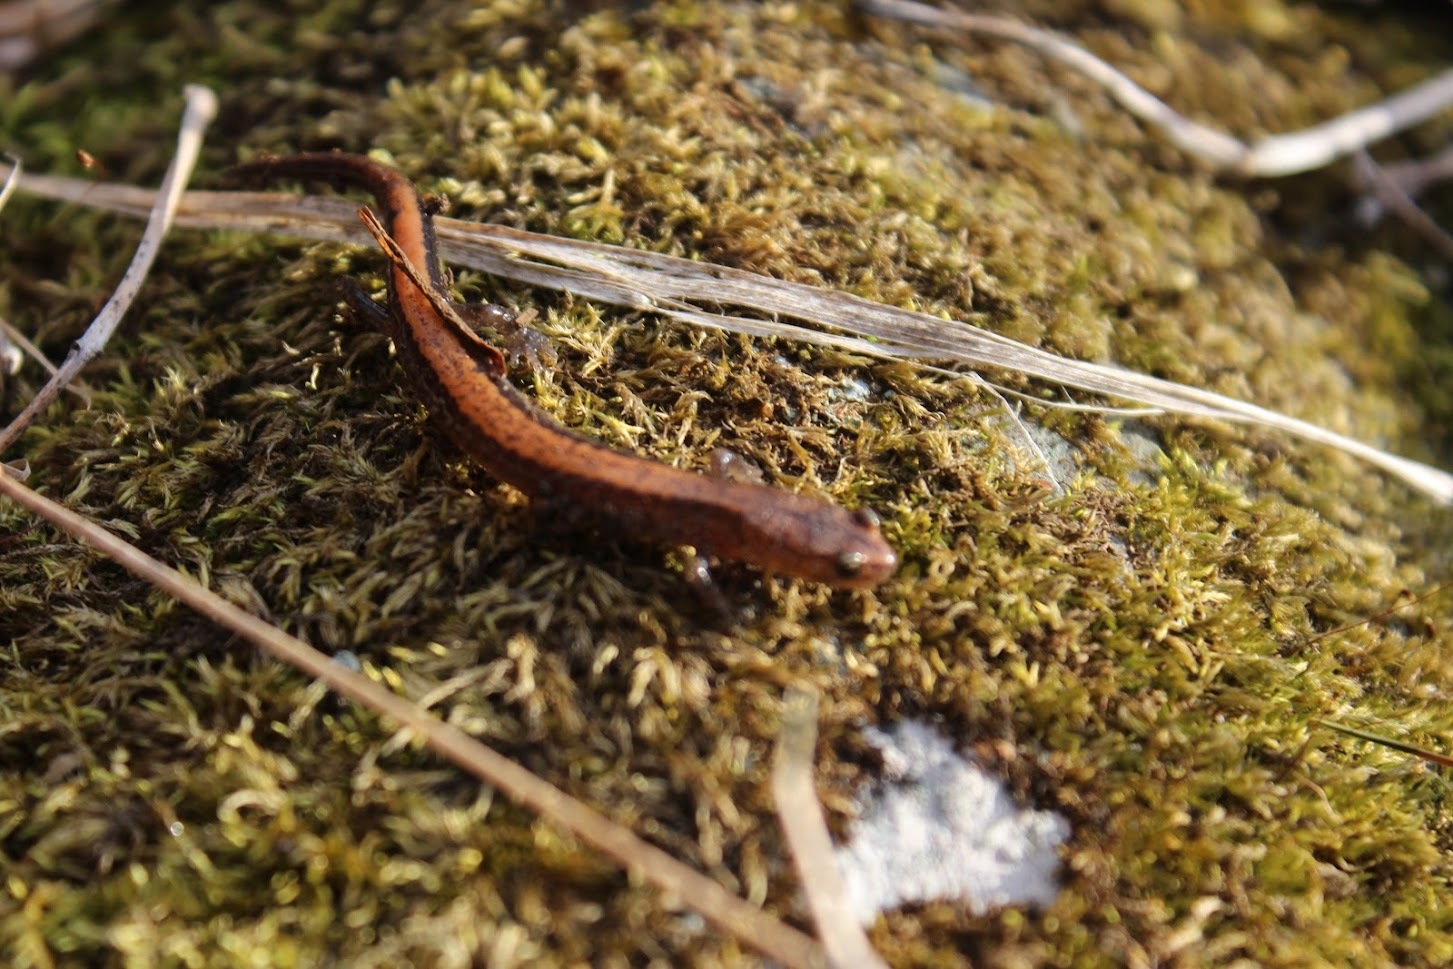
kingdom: Animalia
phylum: Chordata
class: Amphibia
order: Caudata
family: Plethodontidae
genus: Plethodon
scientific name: Plethodon cinereus
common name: Redback salamander
